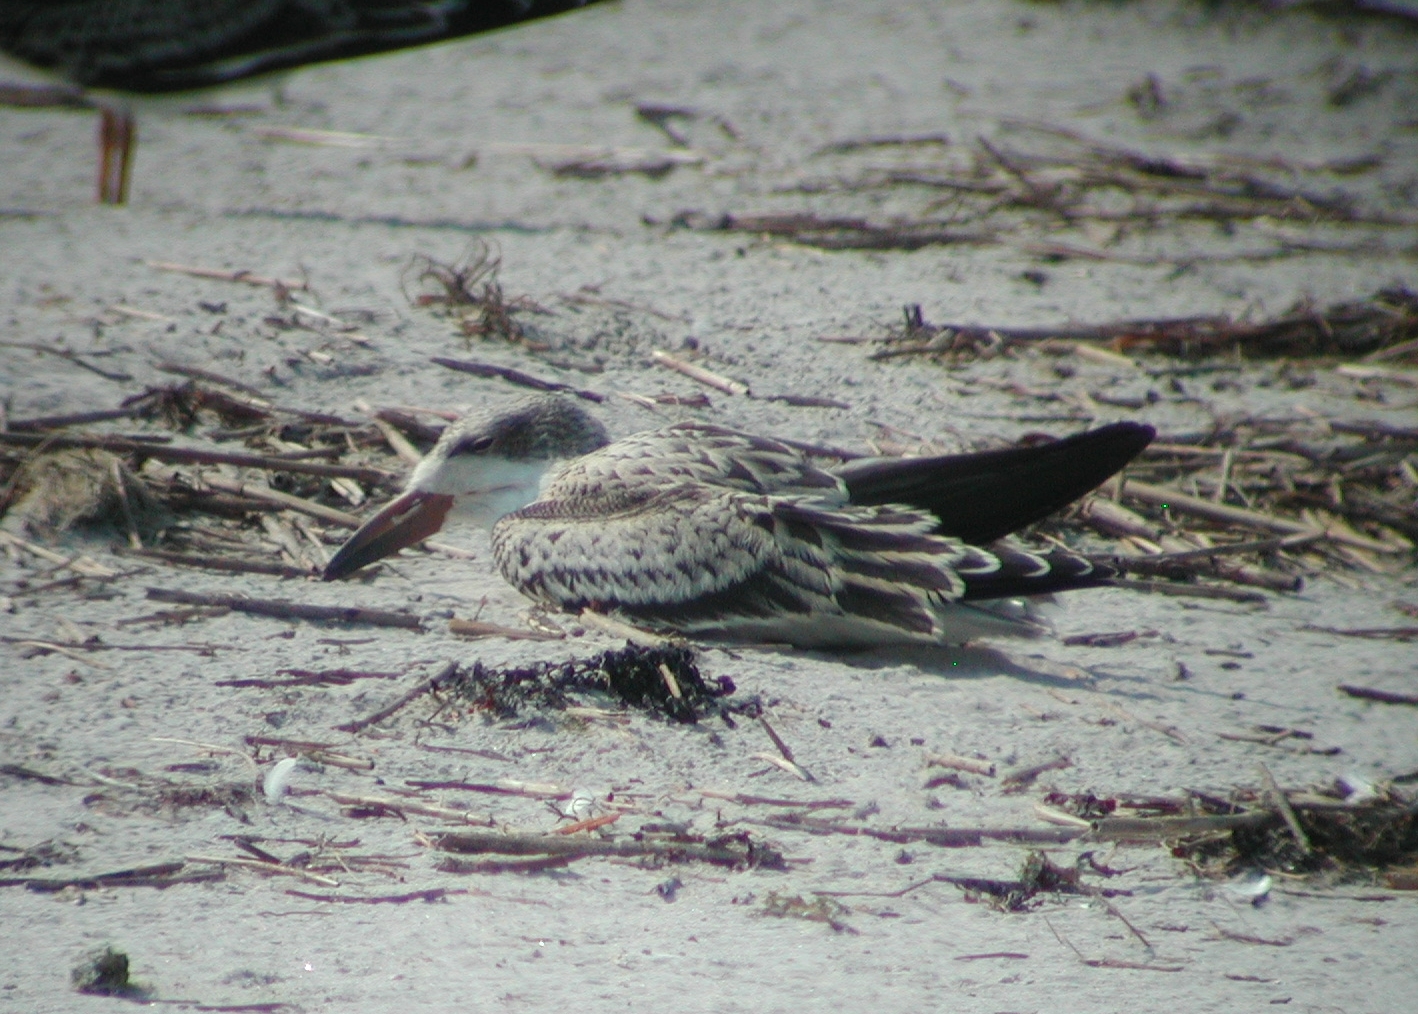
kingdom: Animalia
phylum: Chordata
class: Aves
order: Charadriiformes
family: Laridae
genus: Rynchops
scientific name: Rynchops niger
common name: Black skimmer
